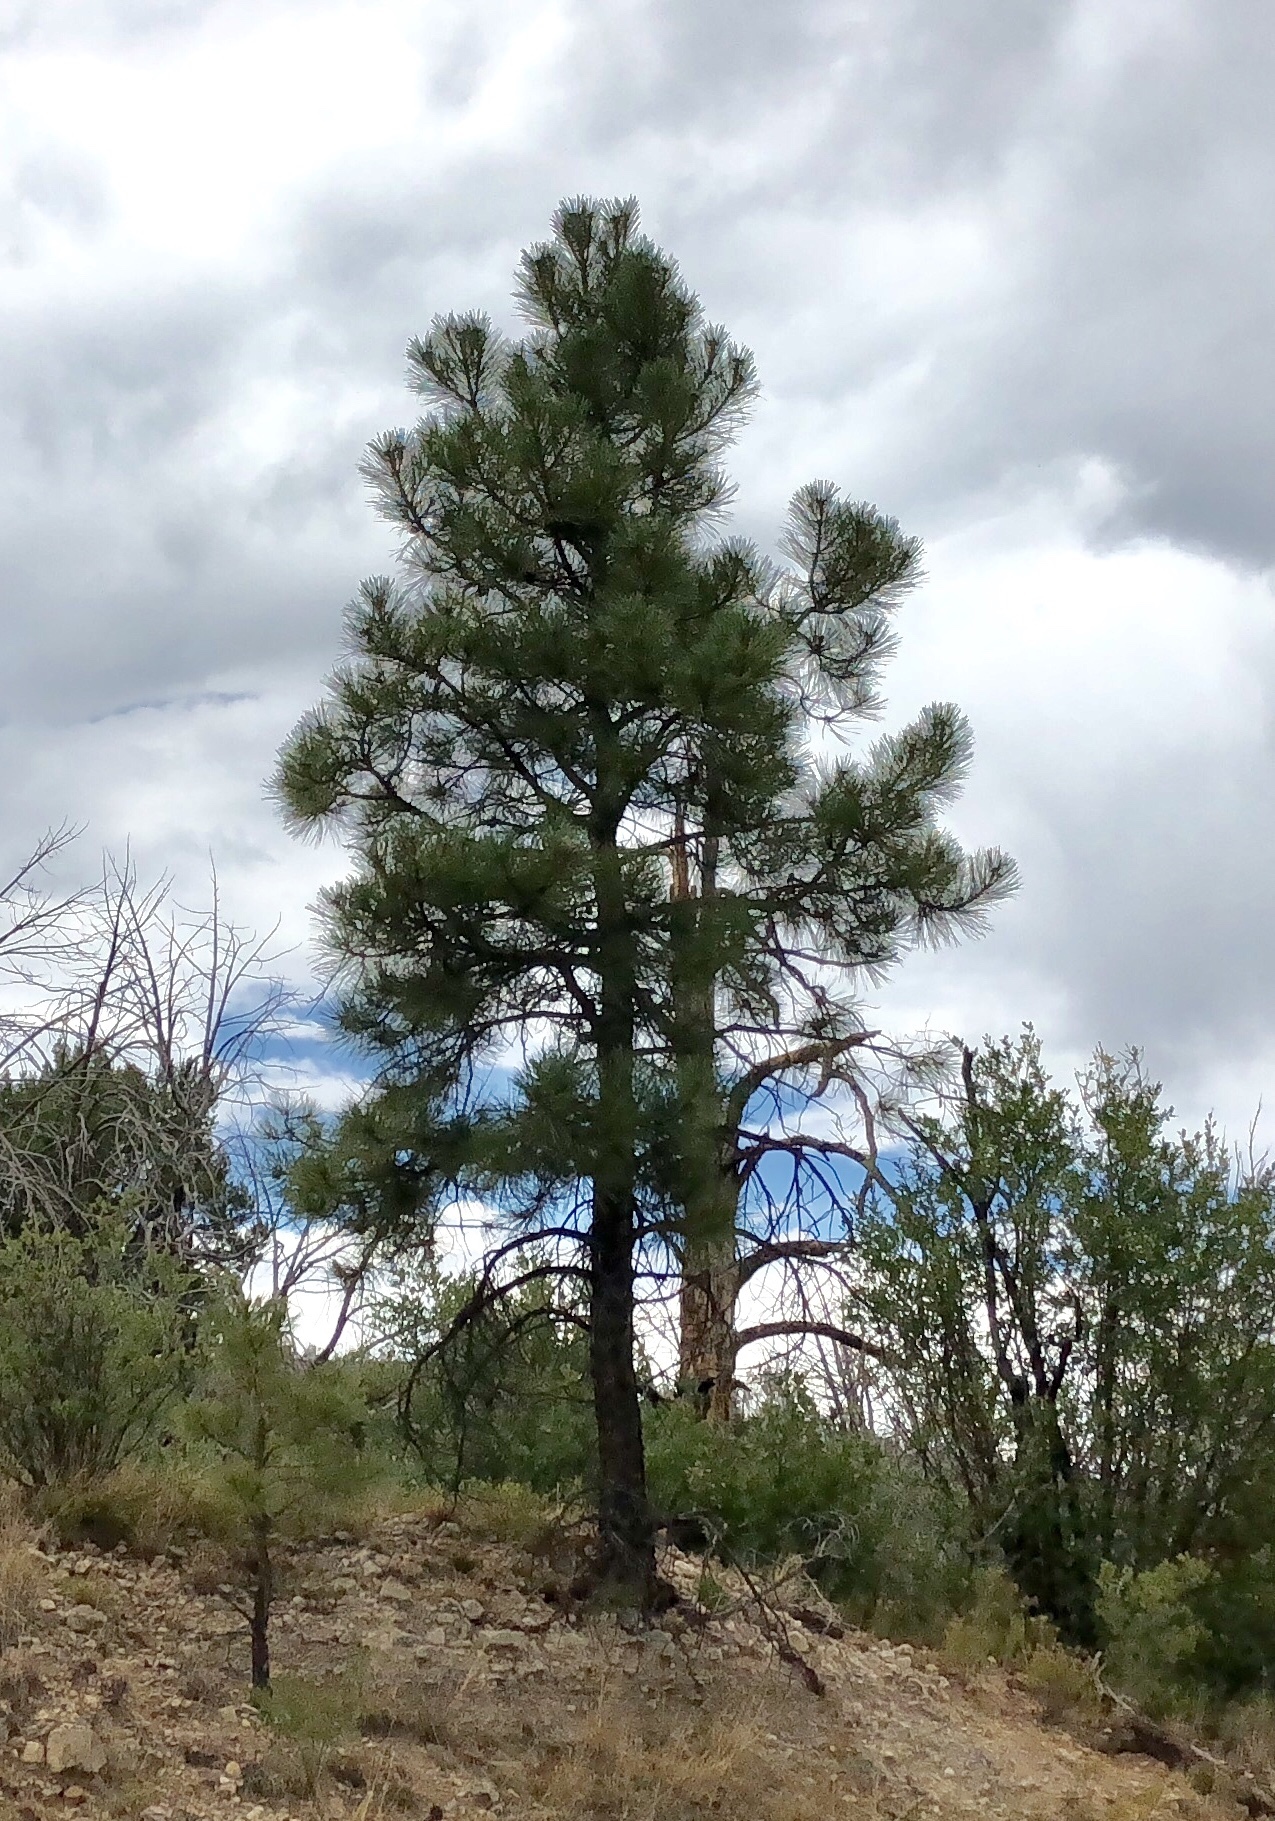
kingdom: Plantae
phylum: Tracheophyta
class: Pinopsida
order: Pinales
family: Pinaceae
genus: Pinus
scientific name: Pinus ponderosa
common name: Western yellow-pine
